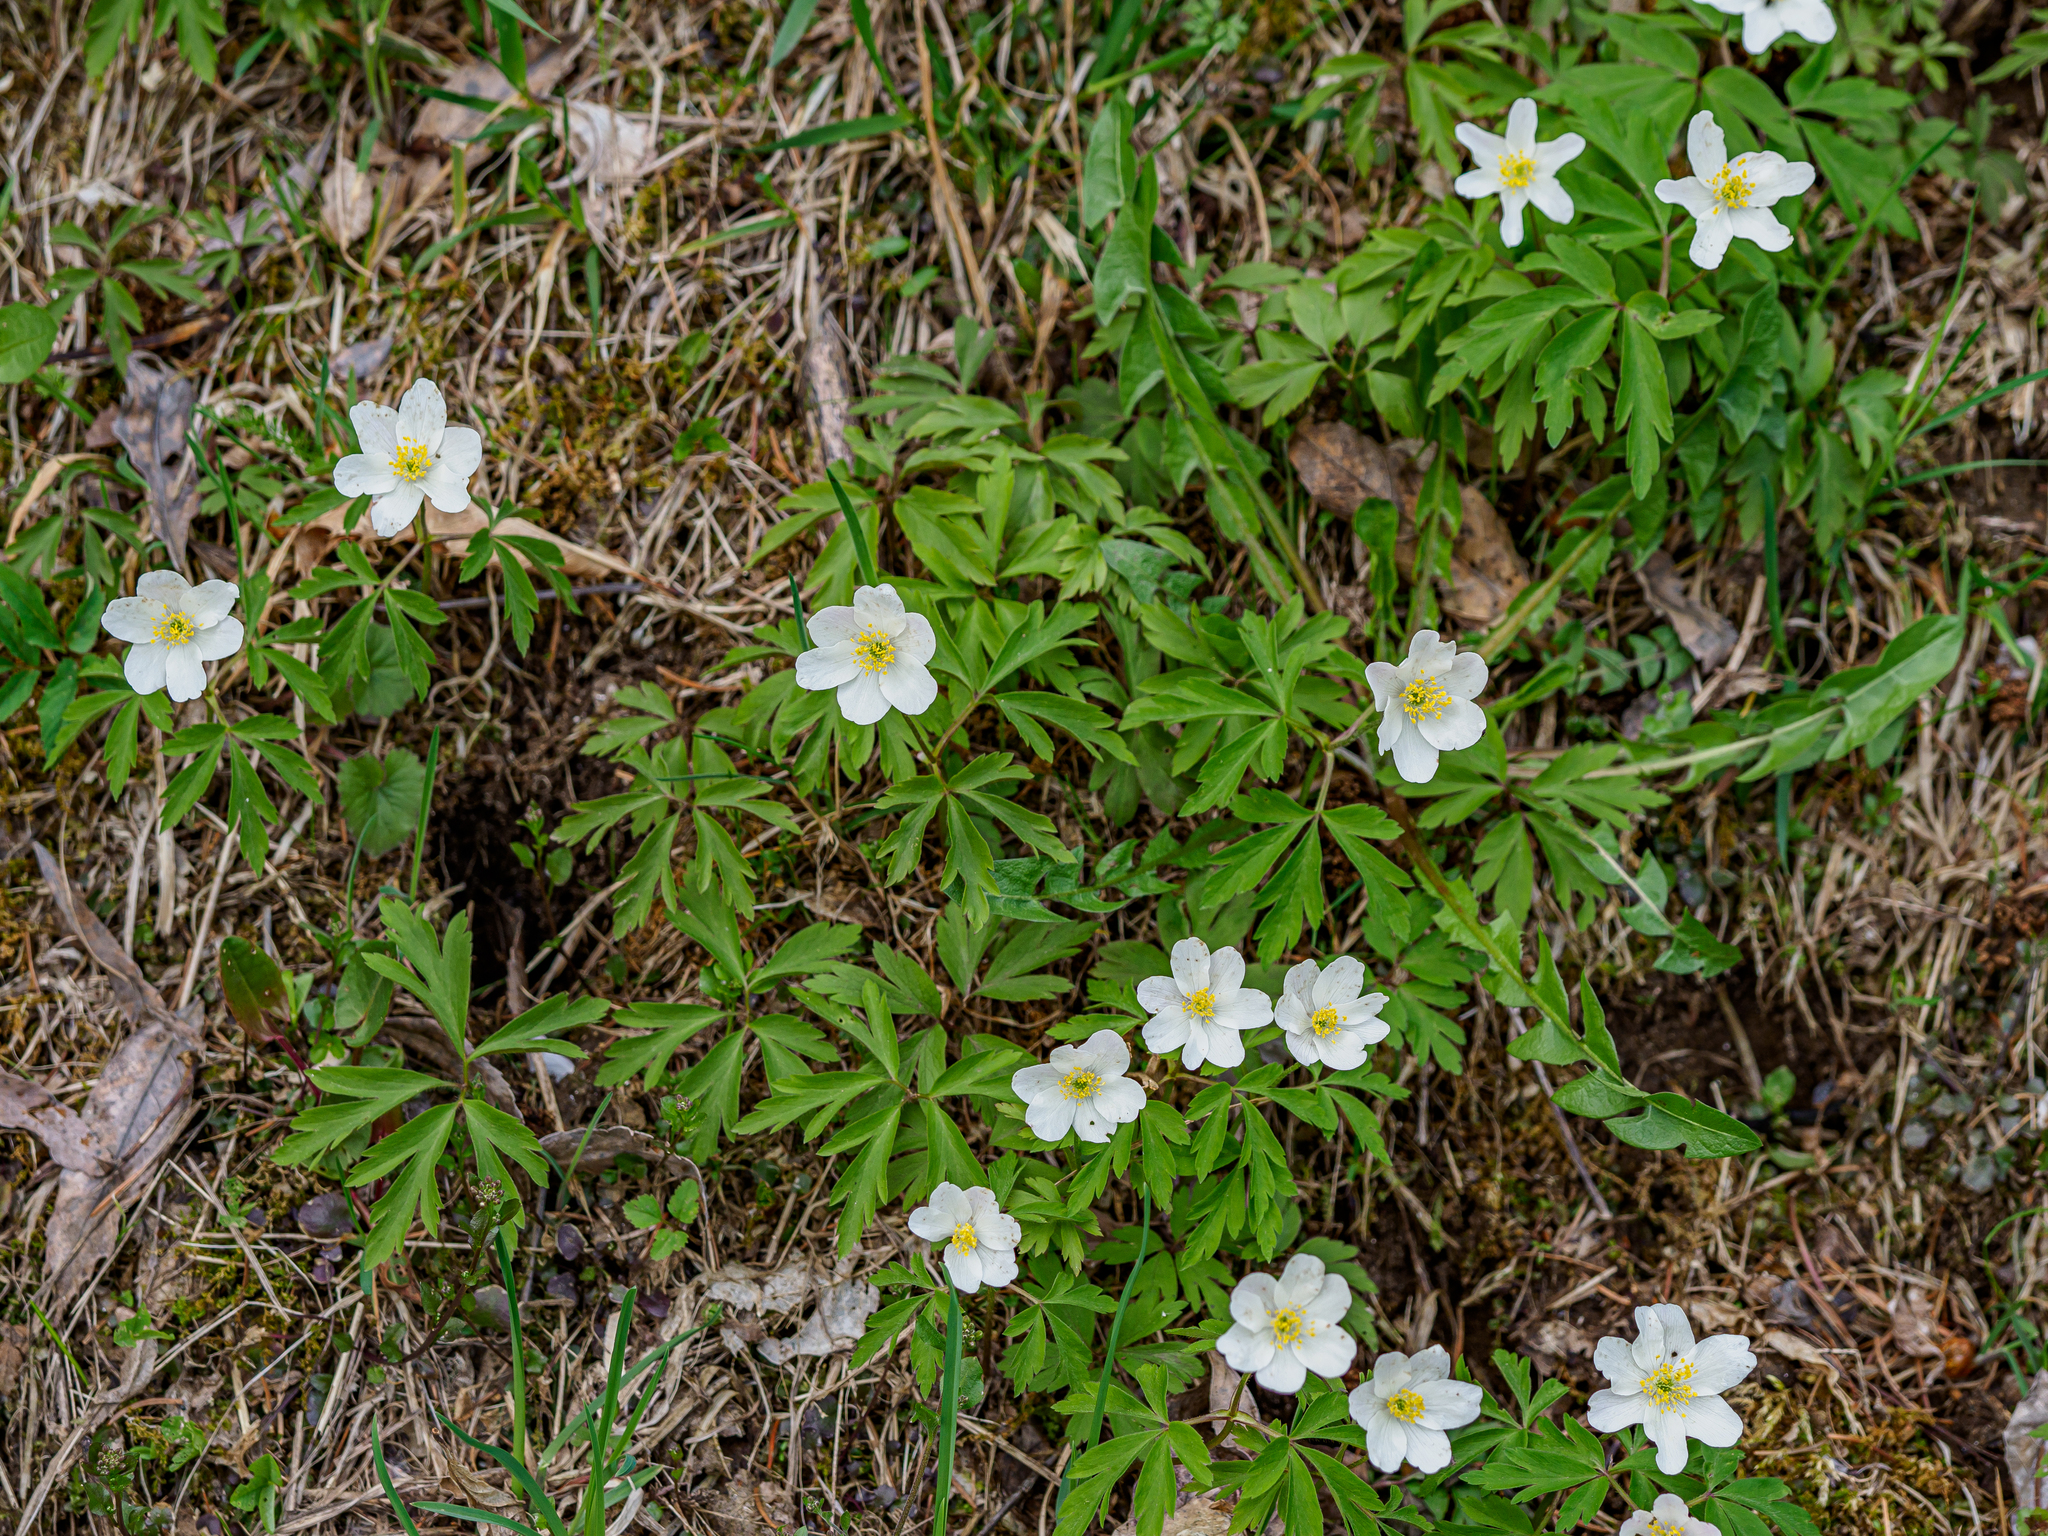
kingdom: Plantae
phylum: Tracheophyta
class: Magnoliopsida
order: Ranunculales
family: Ranunculaceae
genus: Anemone
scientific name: Anemone nemorosa
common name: Wood anemone
